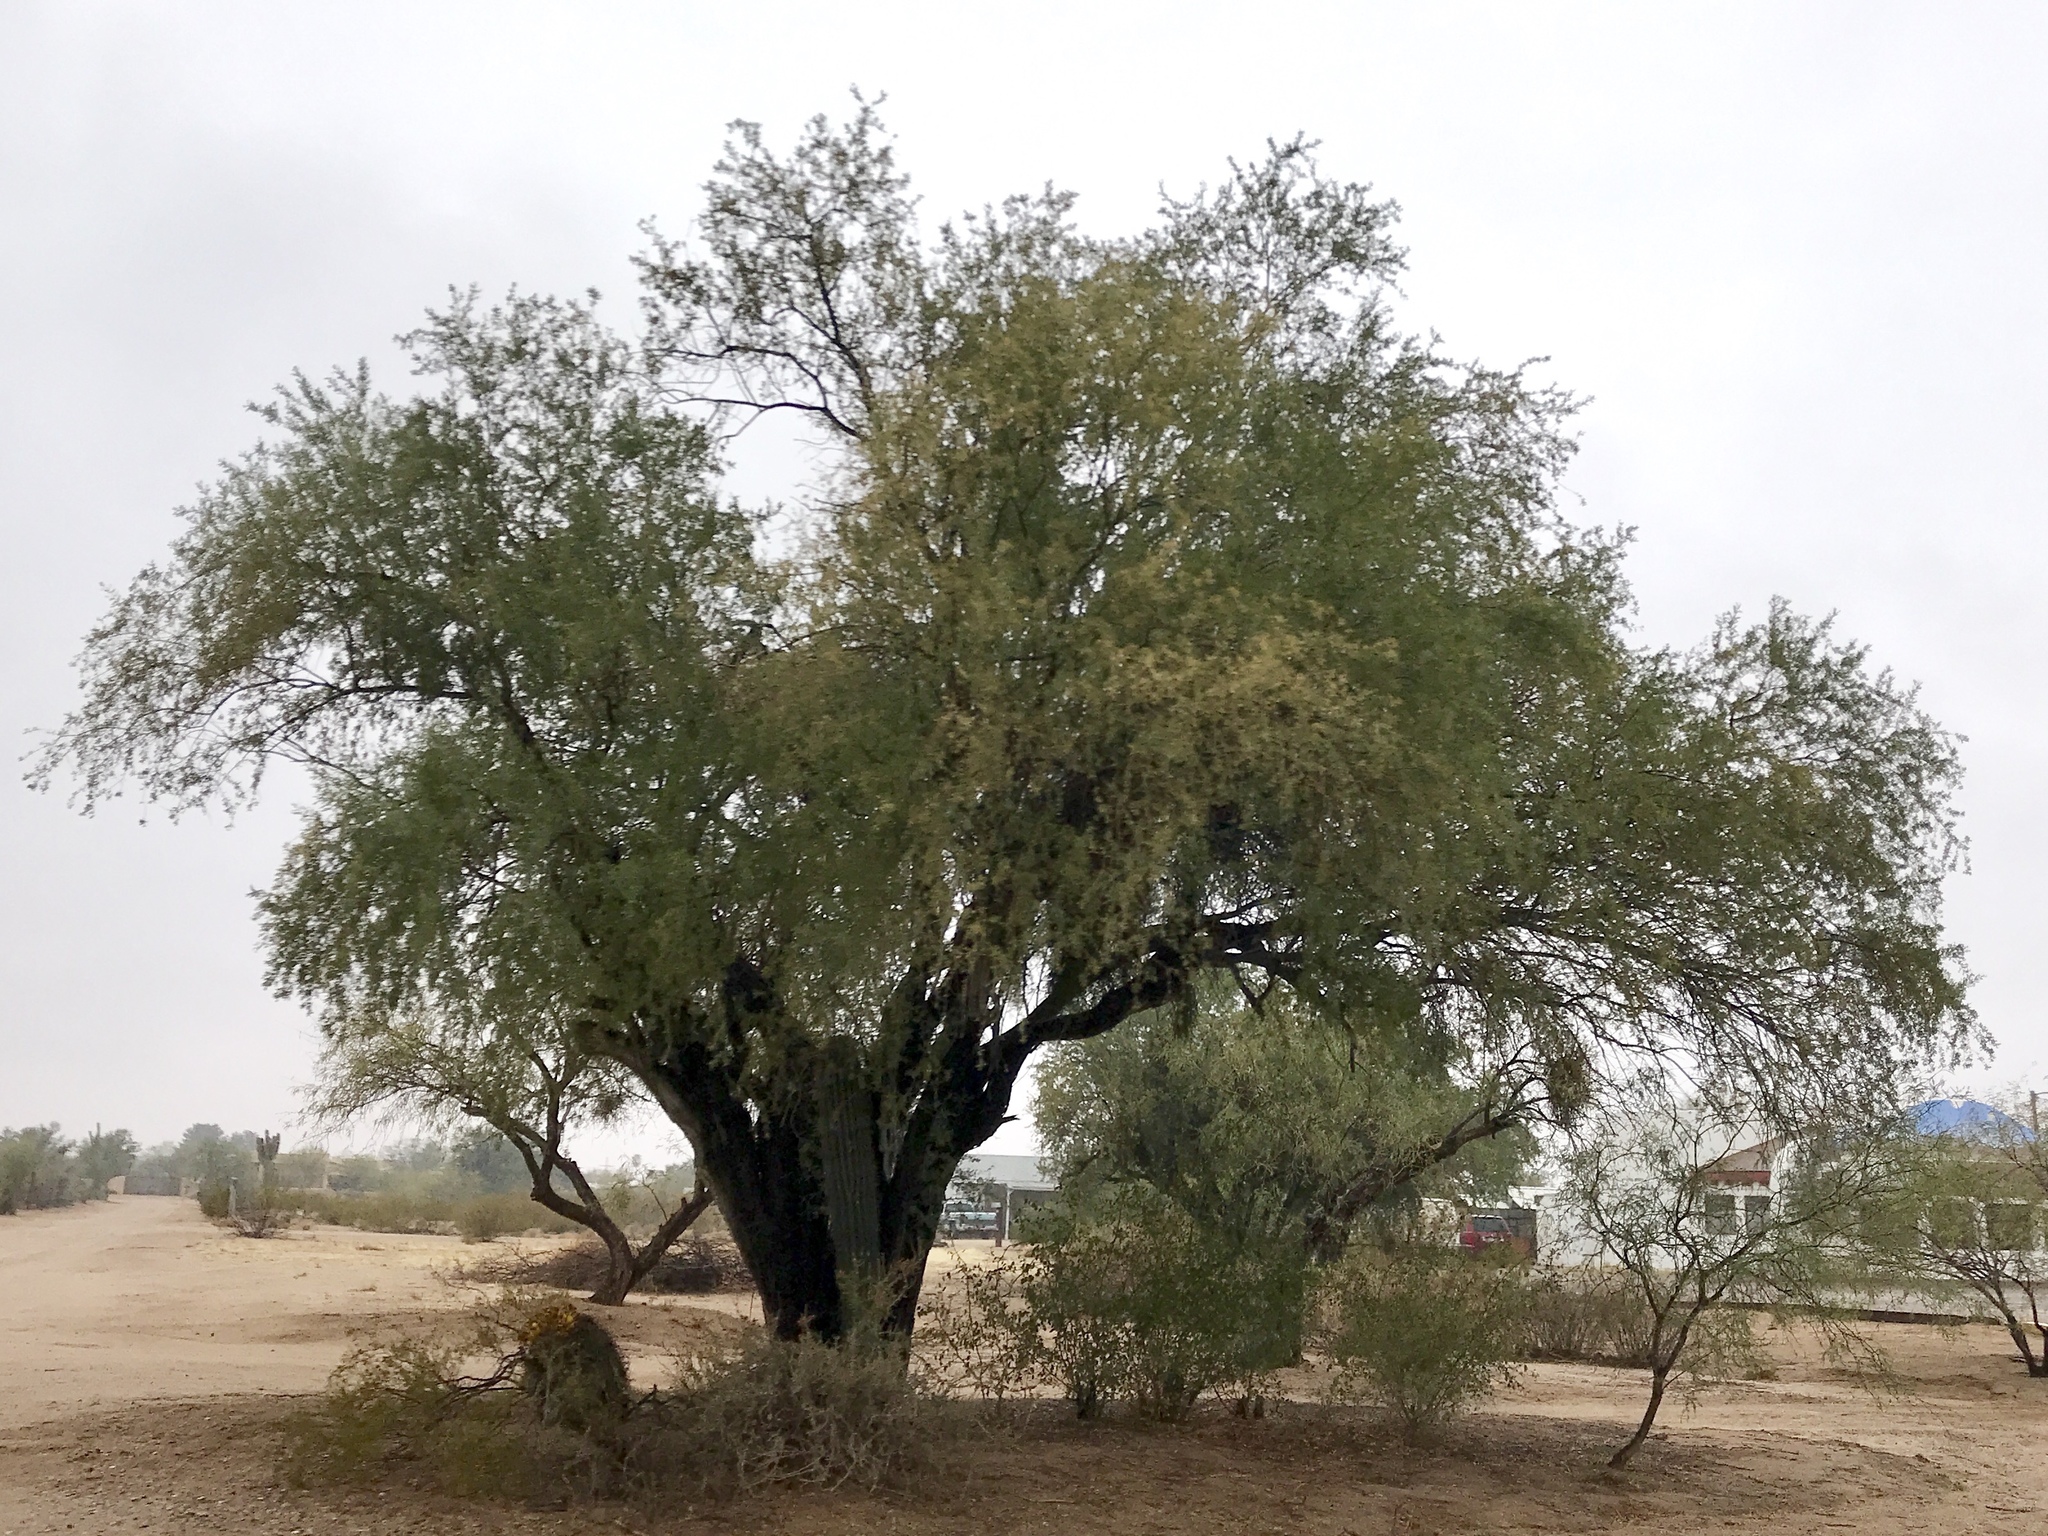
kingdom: Plantae
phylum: Tracheophyta
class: Magnoliopsida
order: Fabales
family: Fabaceae
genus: Olneya
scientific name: Olneya tesota
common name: Desert ironwood
